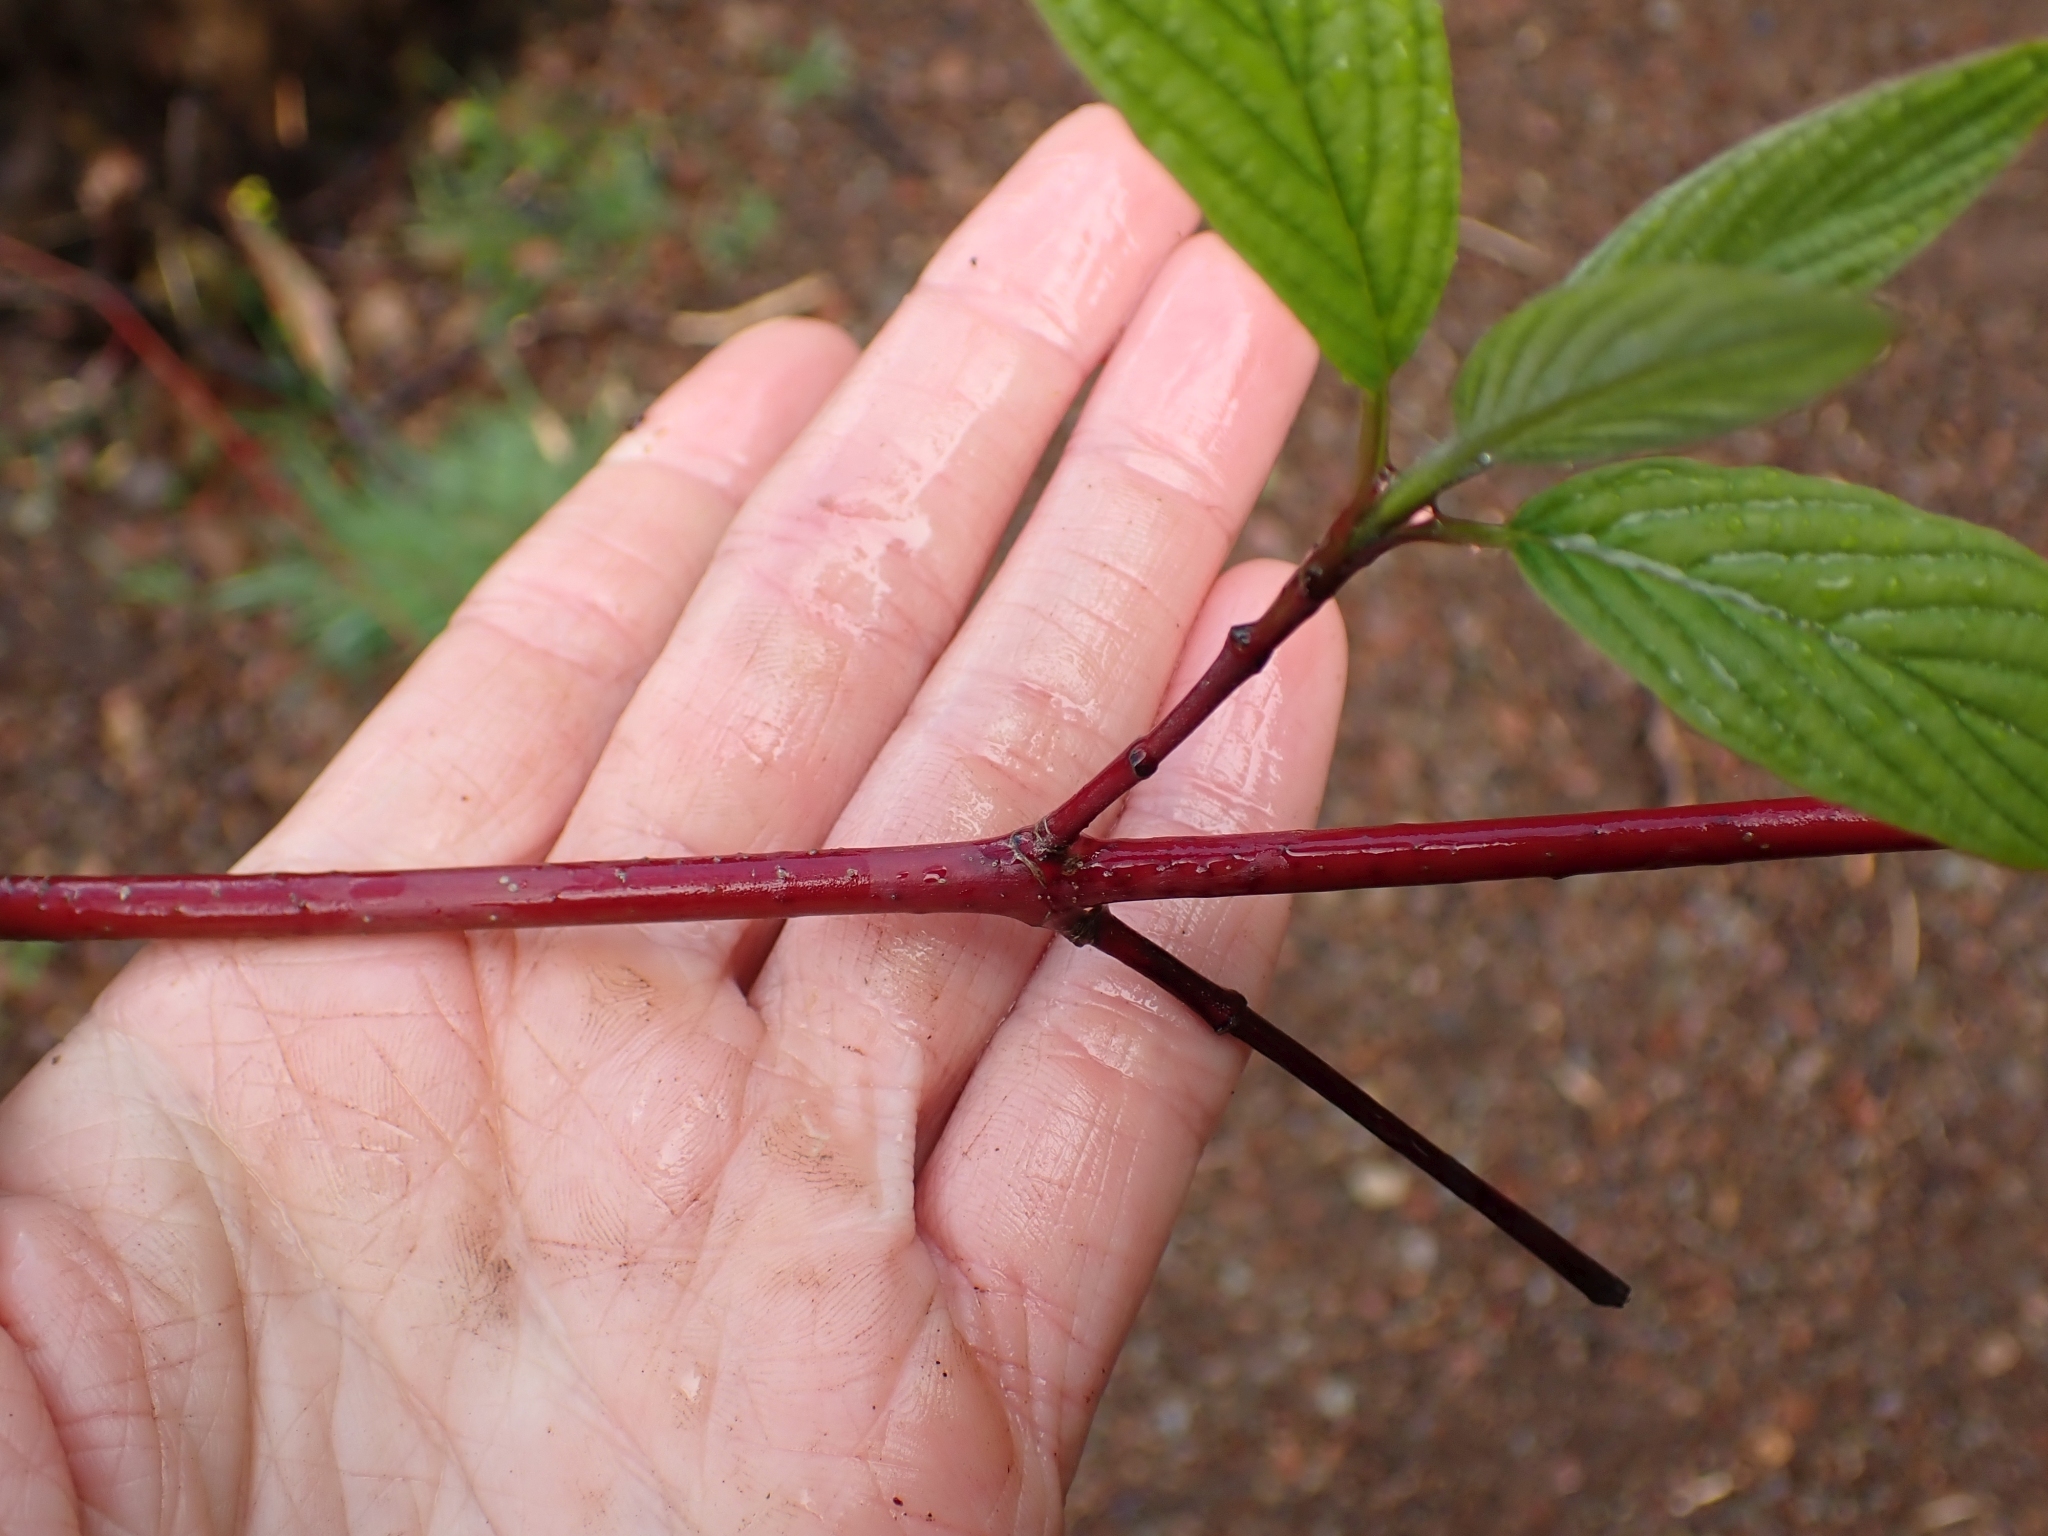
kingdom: Plantae
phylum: Tracheophyta
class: Magnoliopsida
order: Cornales
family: Cornaceae
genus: Cornus
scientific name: Cornus sericea
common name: Red-osier dogwood
